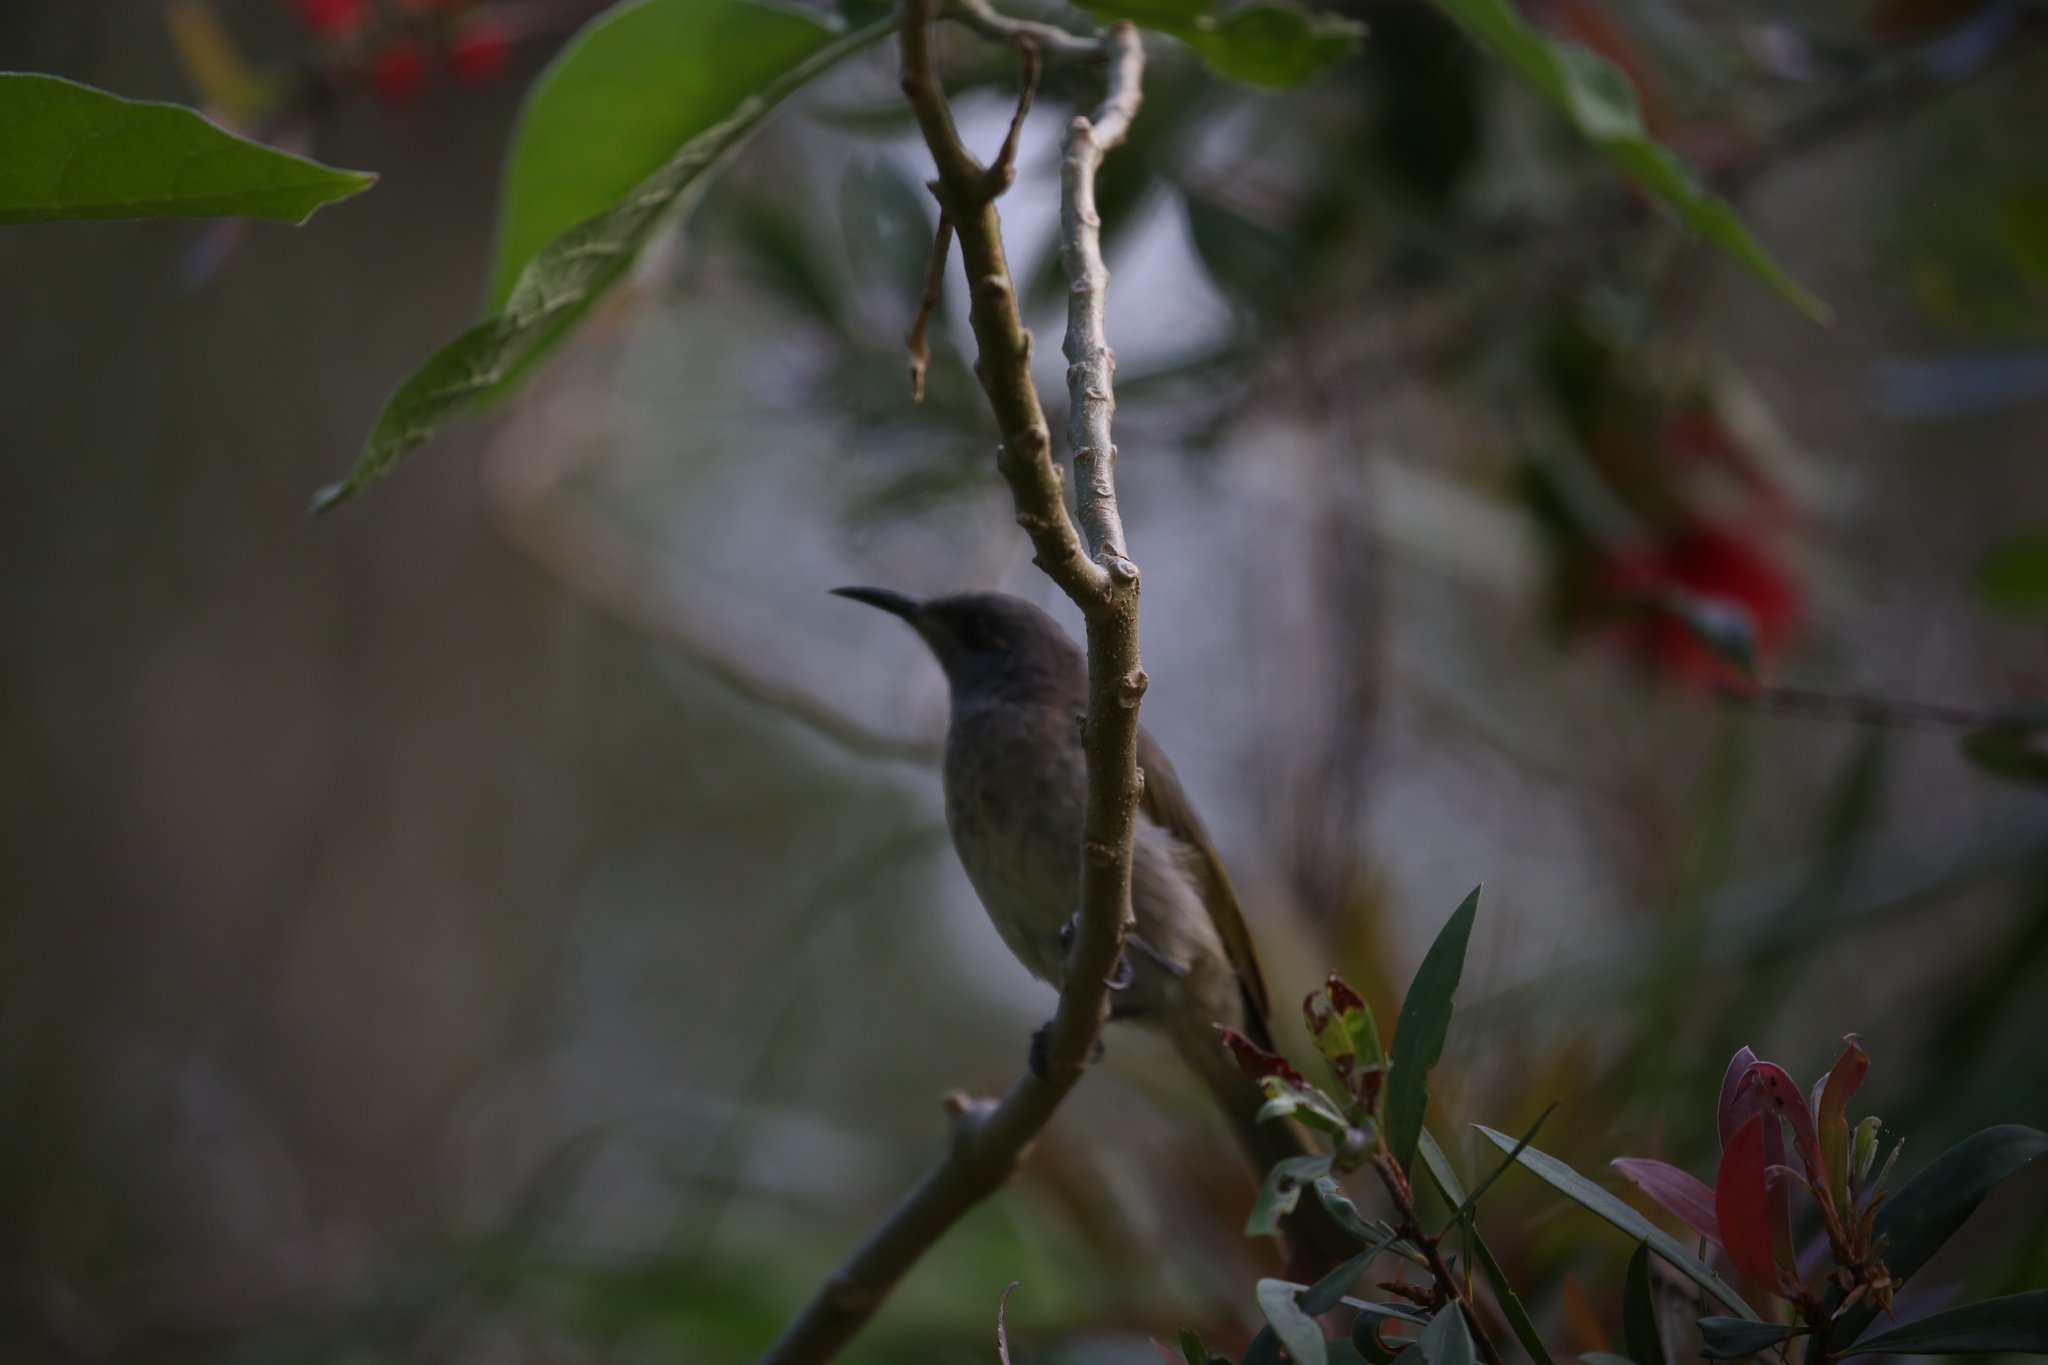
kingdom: Animalia
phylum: Chordata
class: Aves
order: Passeriformes
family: Meliphagidae
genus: Lichmera
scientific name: Lichmera indistincta
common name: Brown honeyeater
